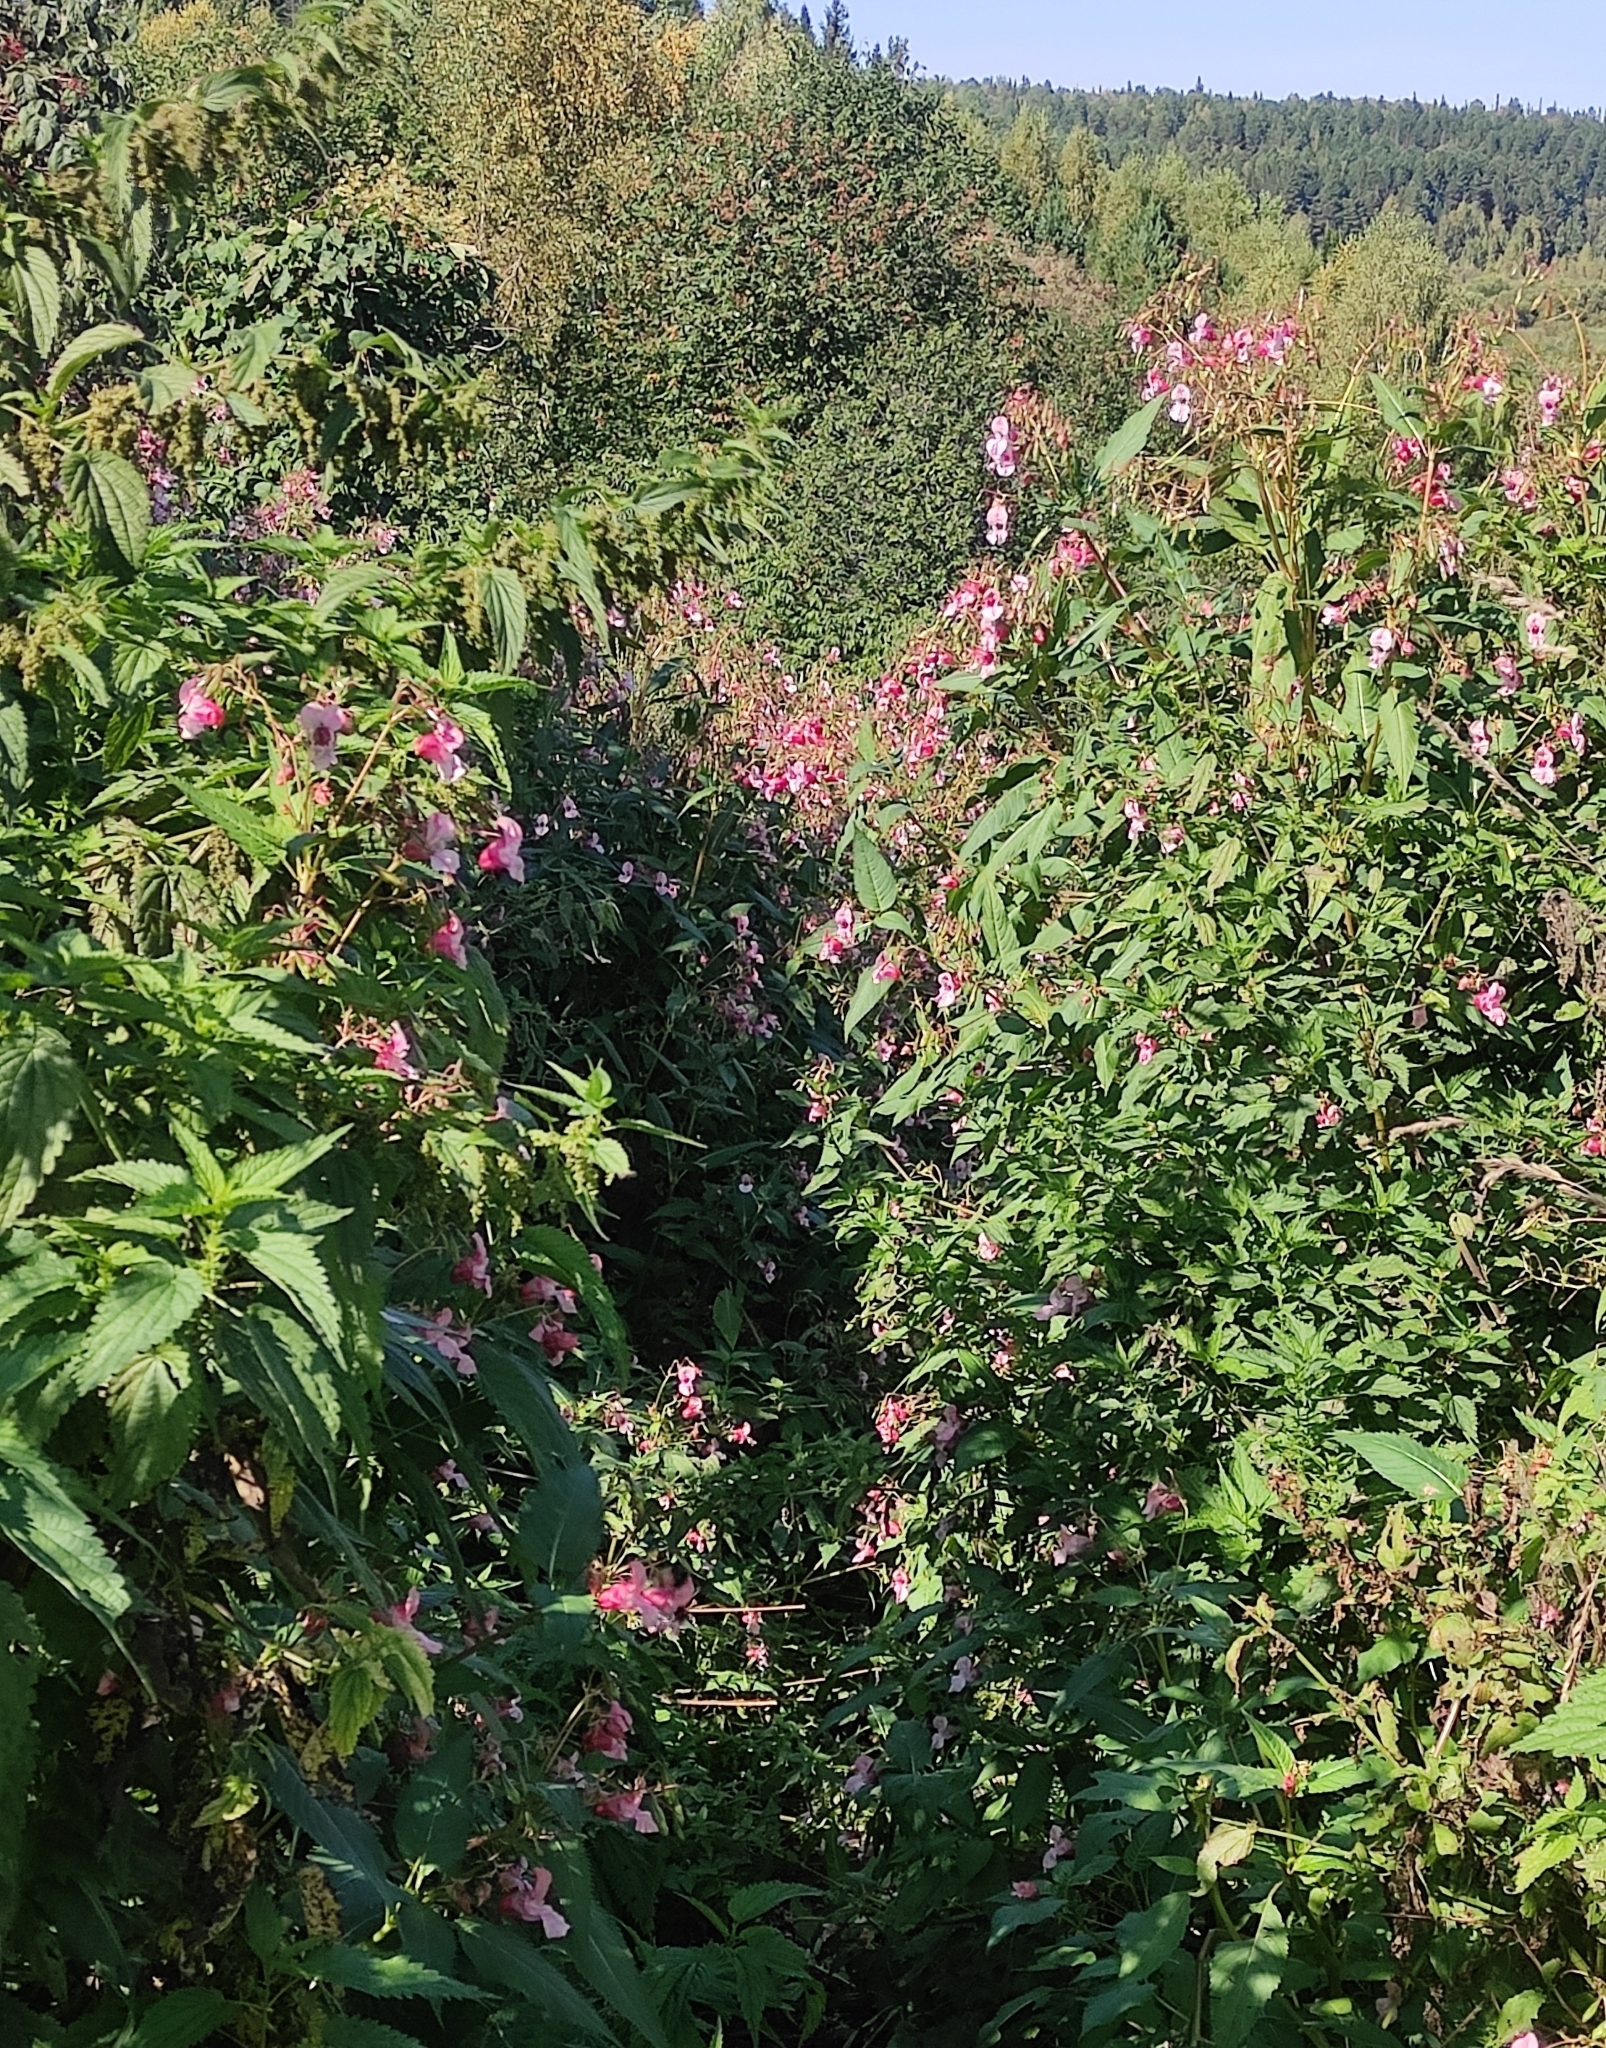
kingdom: Plantae
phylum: Tracheophyta
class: Magnoliopsida
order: Ericales
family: Balsaminaceae
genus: Impatiens
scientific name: Impatiens glandulifera
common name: Himalayan balsam
